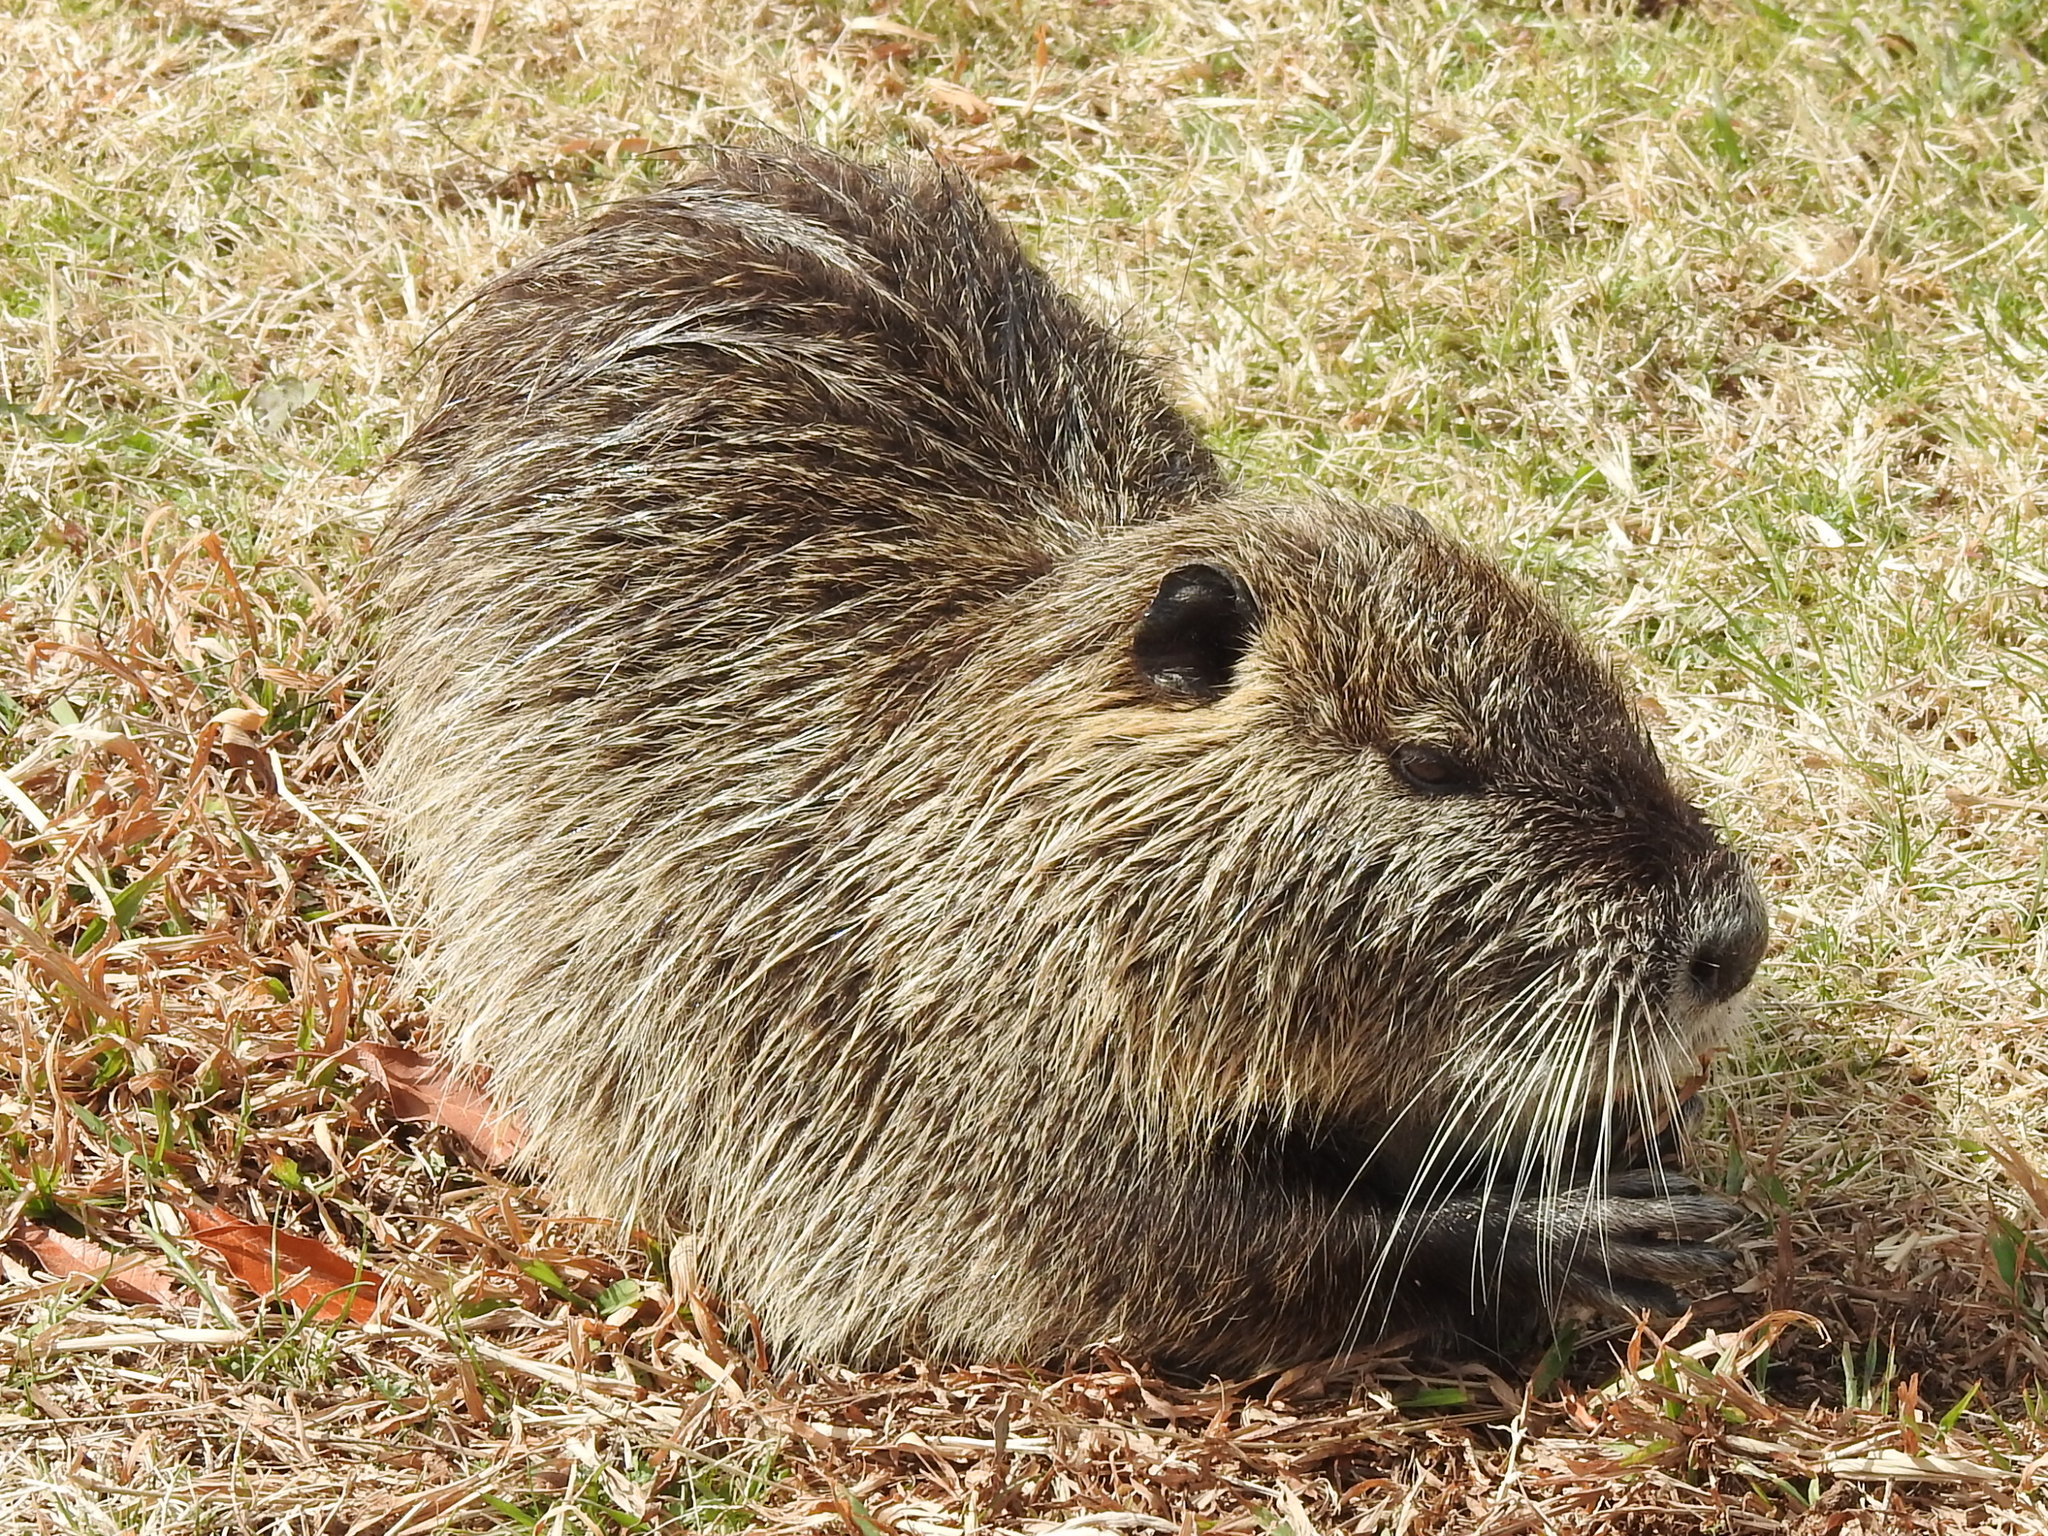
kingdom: Animalia
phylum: Chordata
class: Mammalia
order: Rodentia
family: Myocastoridae
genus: Myocastor
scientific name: Myocastor coypus
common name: Coypu
